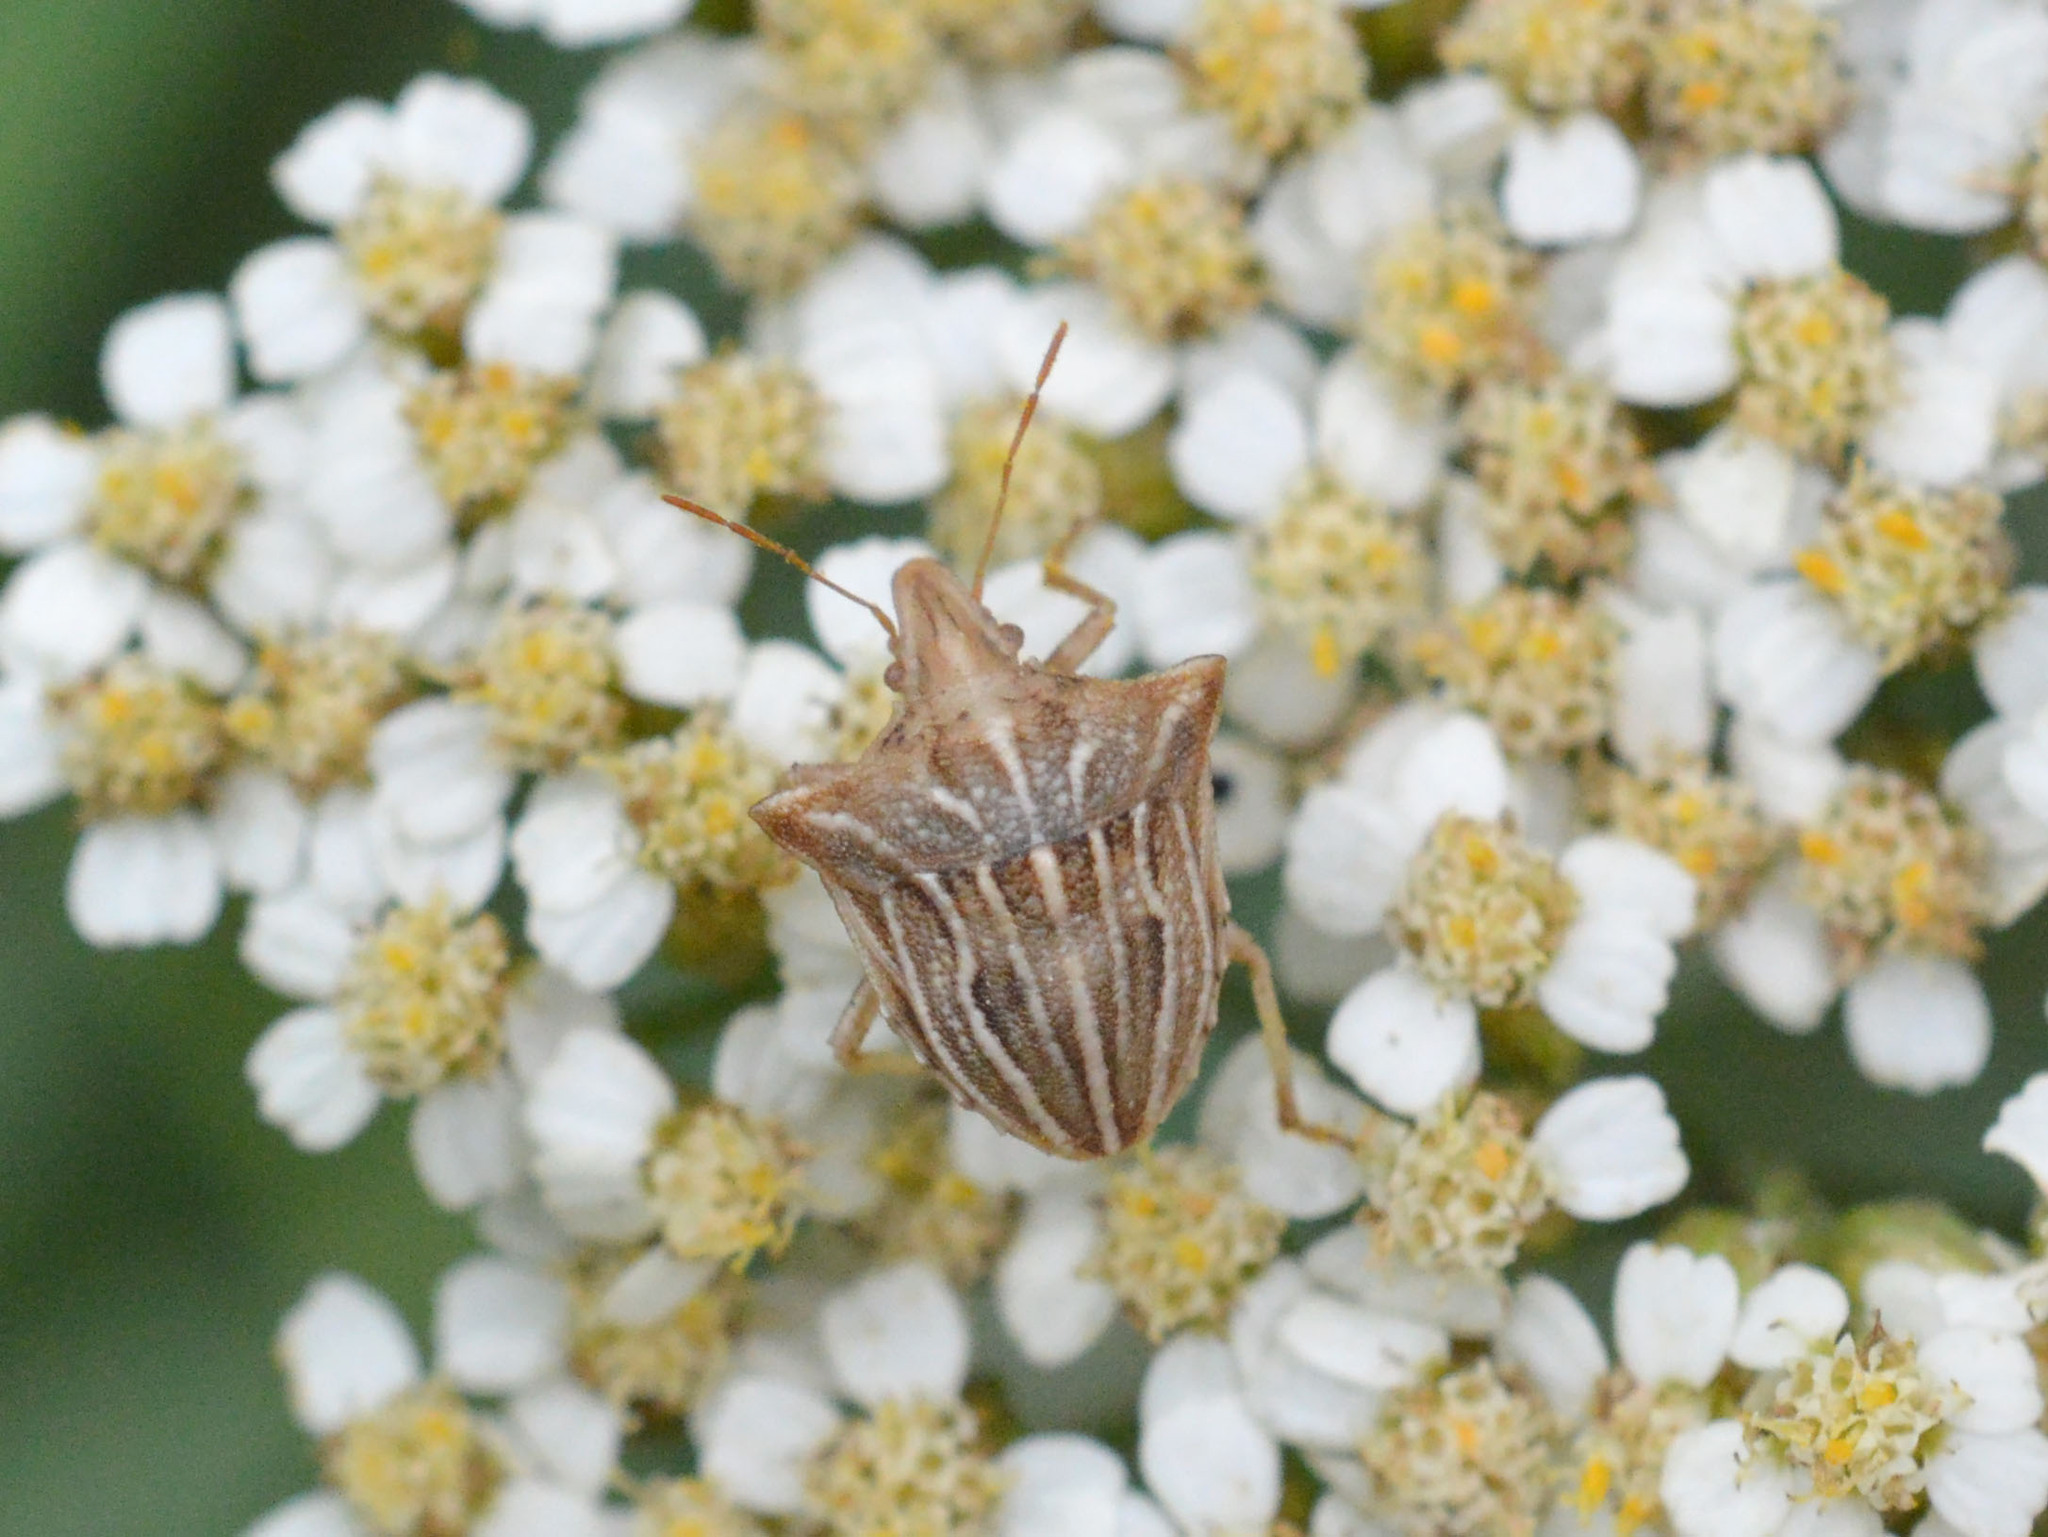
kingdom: Animalia
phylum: Arthropoda
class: Insecta
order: Hemiptera
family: Pentatomidae
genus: Ancyrosoma
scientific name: Ancyrosoma leucogrammes
